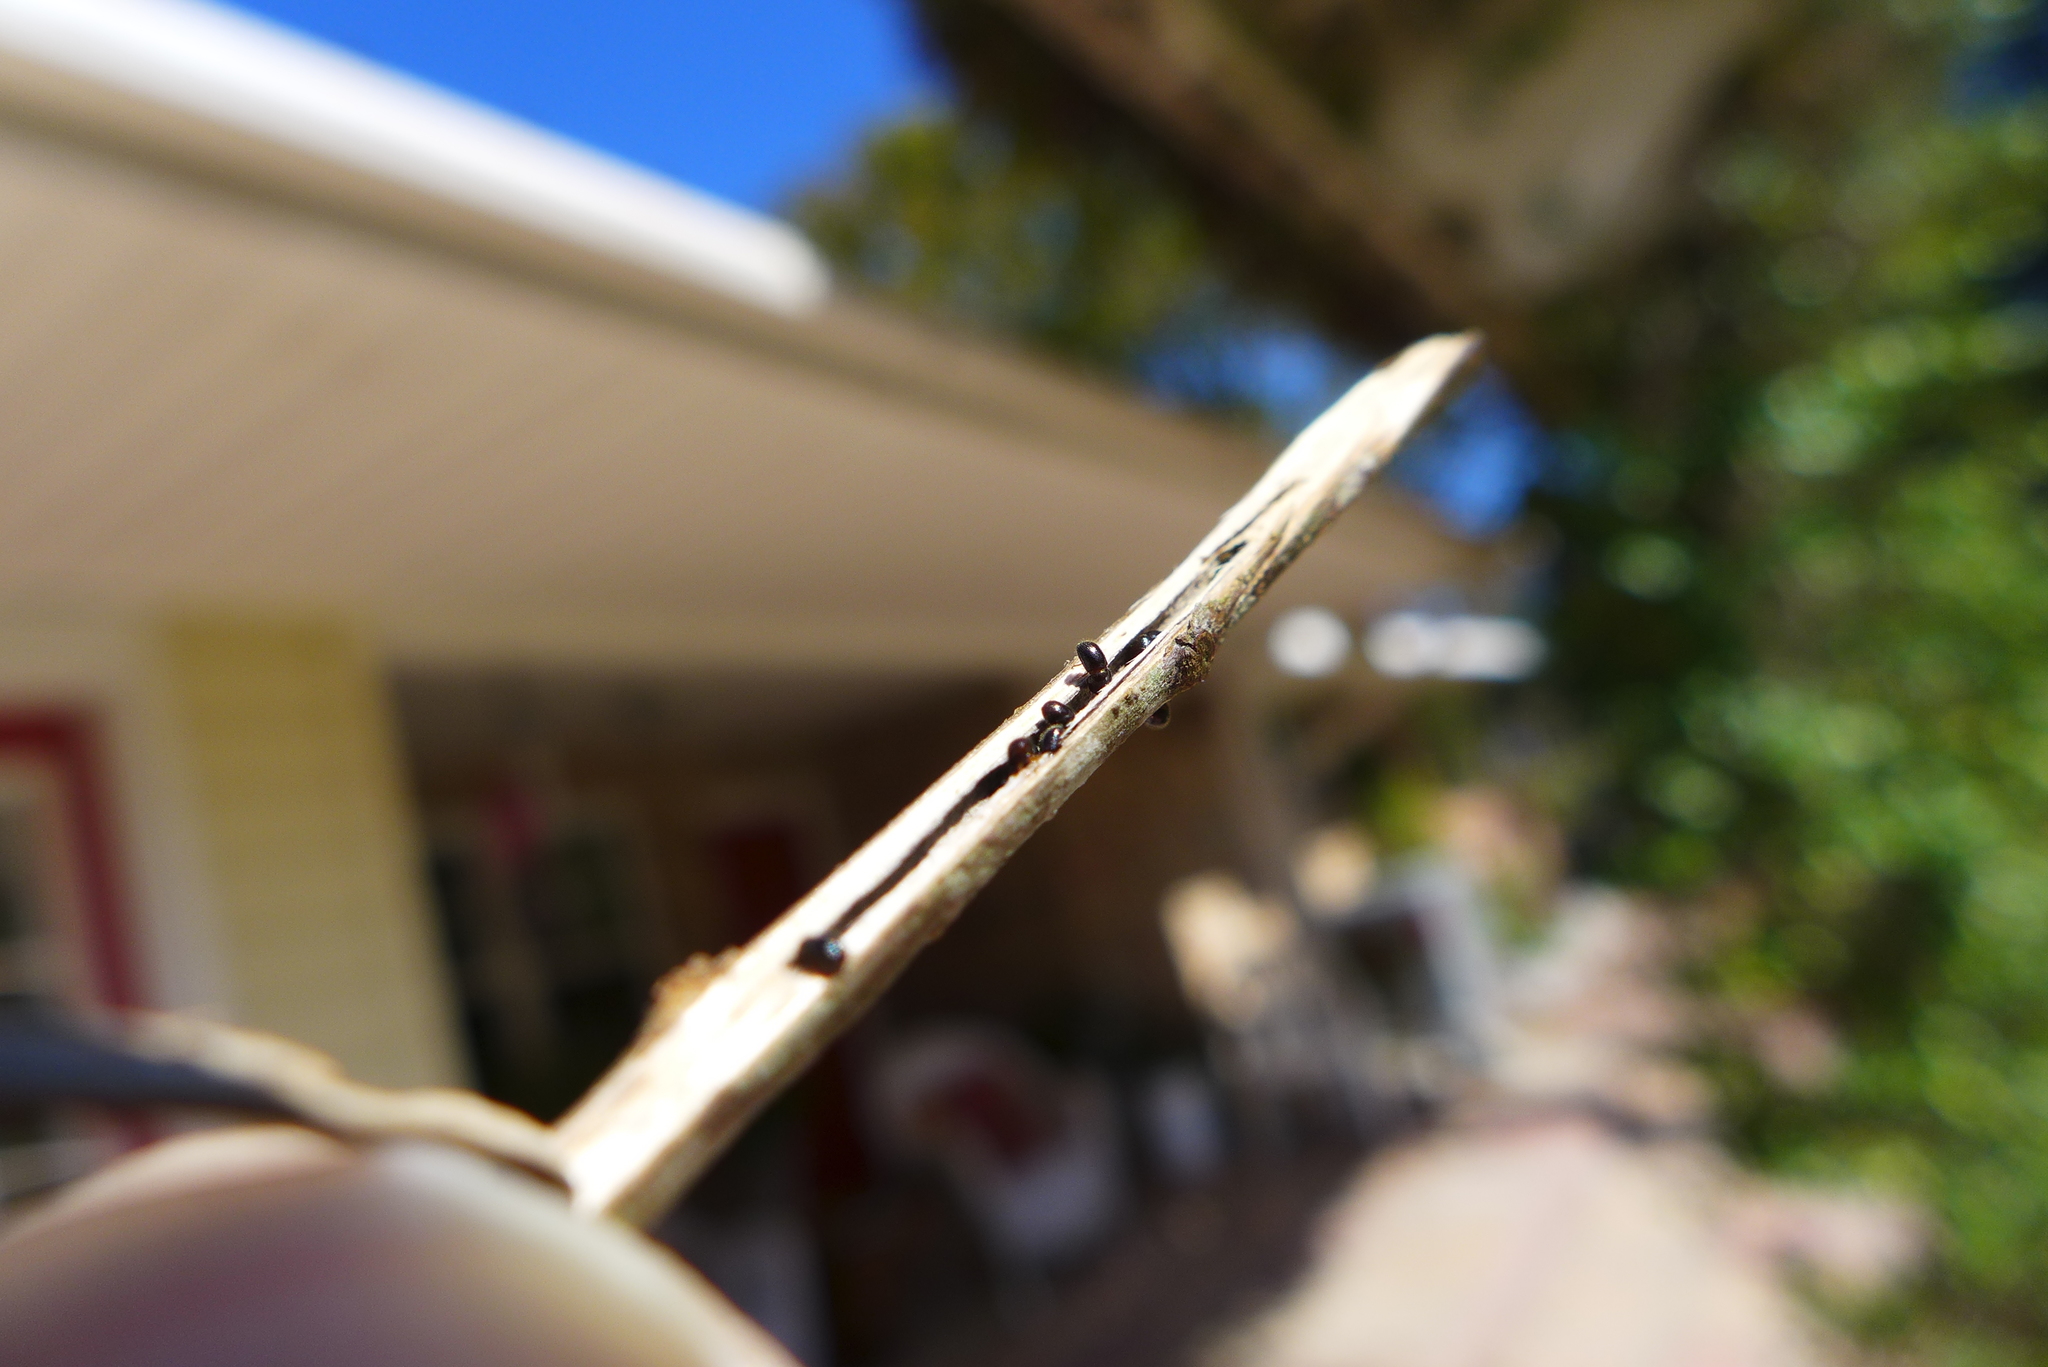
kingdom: Animalia
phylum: Arthropoda
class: Insecta
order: Coleoptera
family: Curculionidae
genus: Xylosandrus
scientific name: Xylosandrus compactus
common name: Black twig borer
